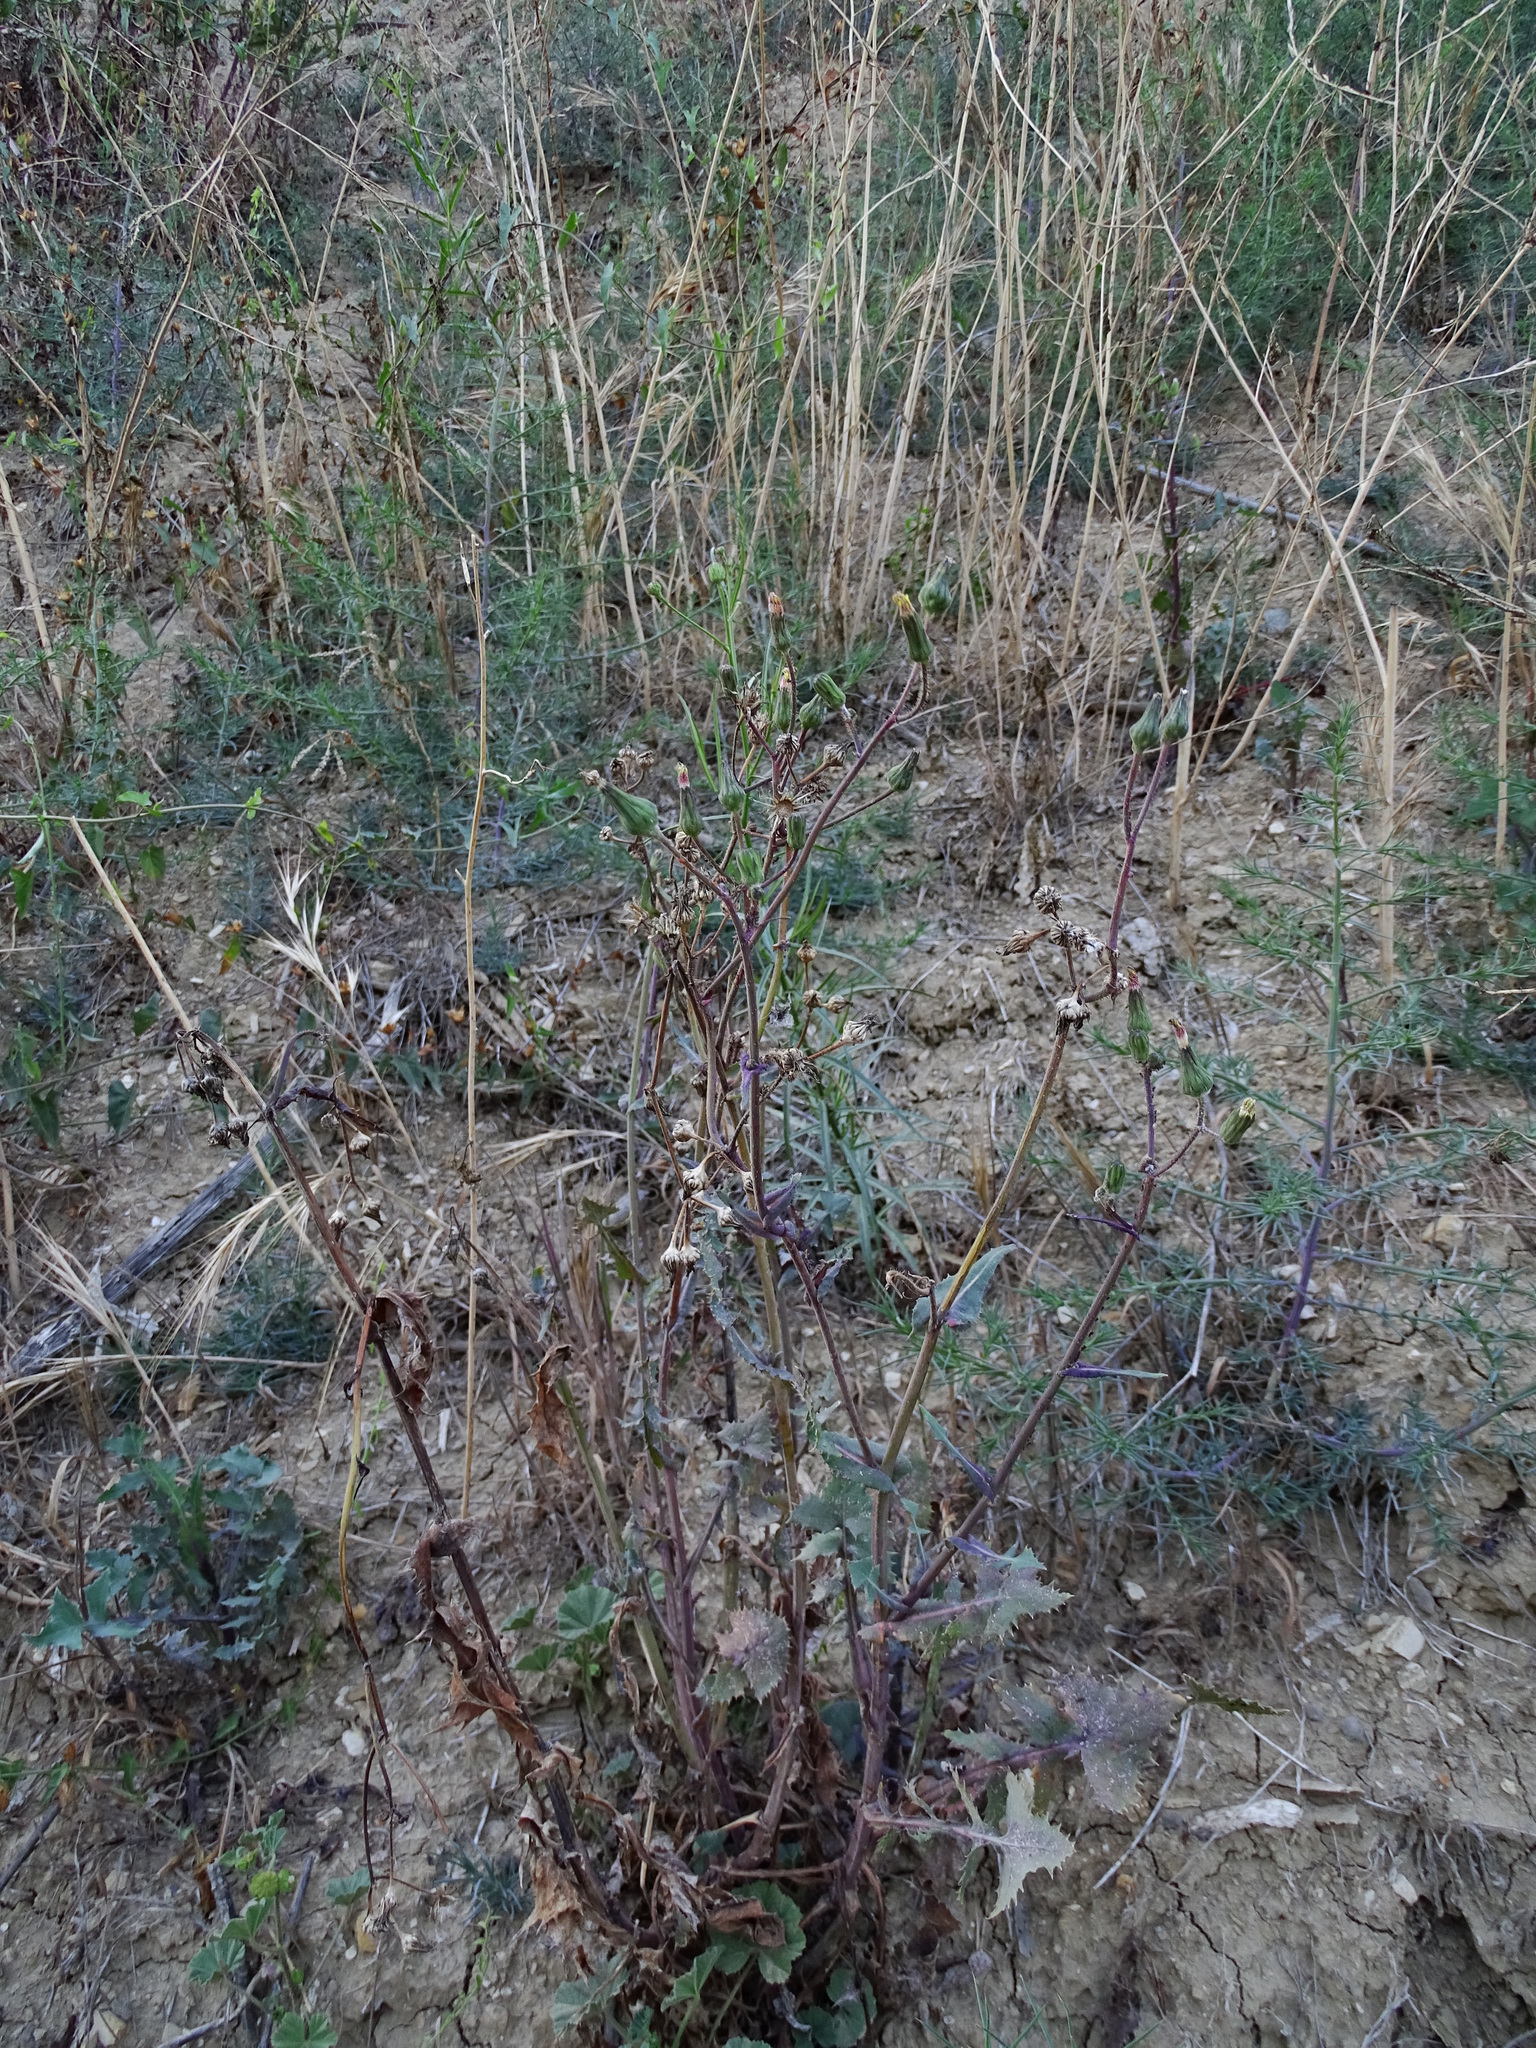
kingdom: Plantae
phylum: Tracheophyta
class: Magnoliopsida
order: Asterales
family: Asteraceae
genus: Sonchus
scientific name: Sonchus oleraceus
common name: Common sowthistle
